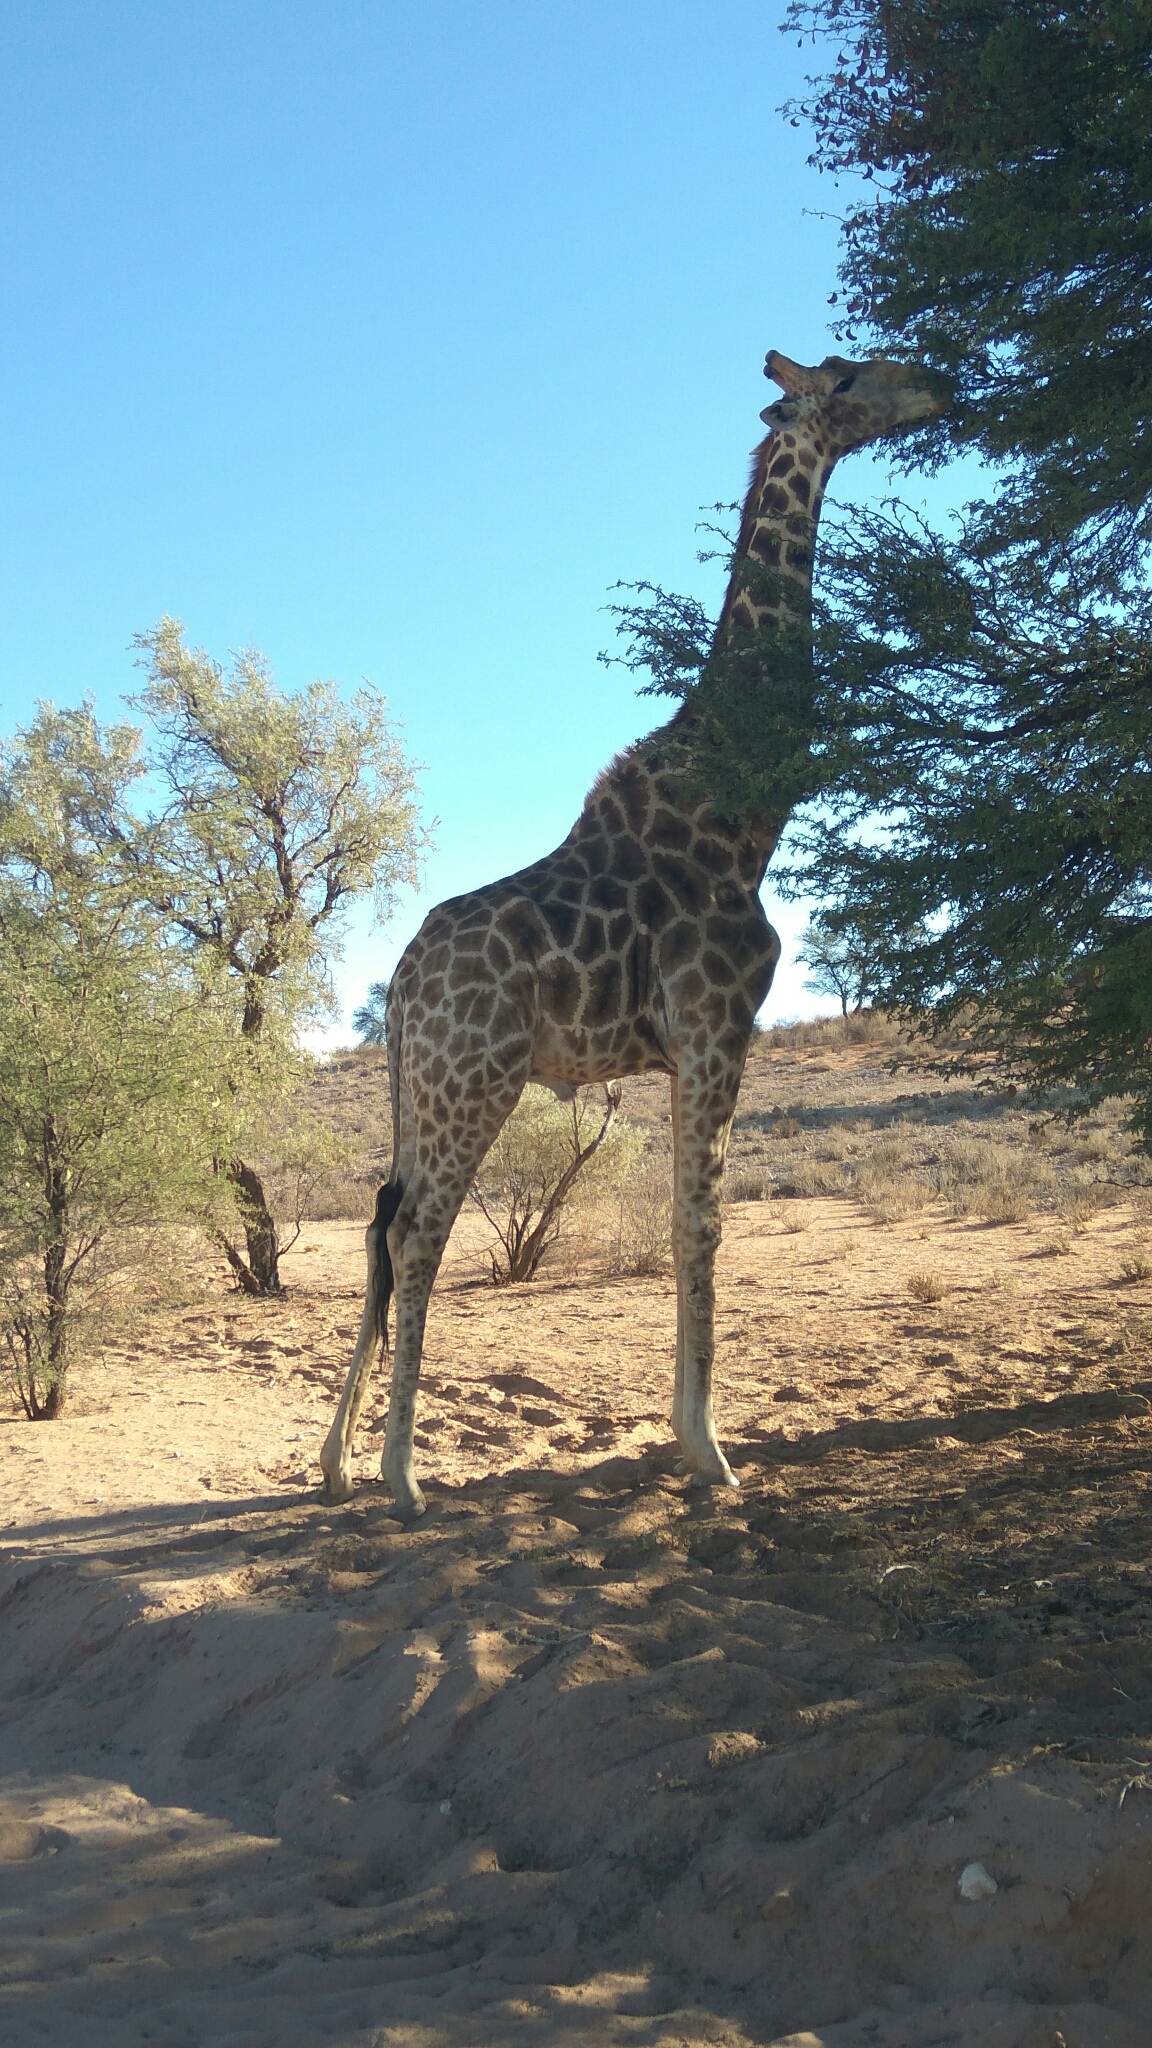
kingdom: Animalia
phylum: Chordata
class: Mammalia
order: Artiodactyla
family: Giraffidae
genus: Giraffa
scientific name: Giraffa giraffa
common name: Southern giraffe
